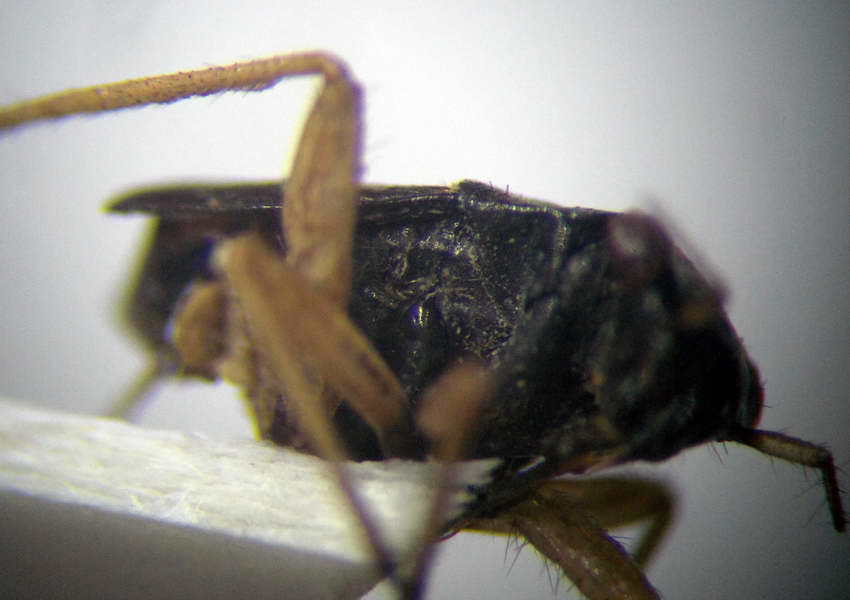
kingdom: Animalia
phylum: Arthropoda
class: Insecta
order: Hemiptera
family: Miridae
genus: Orthocephalus
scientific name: Orthocephalus vittipennis
